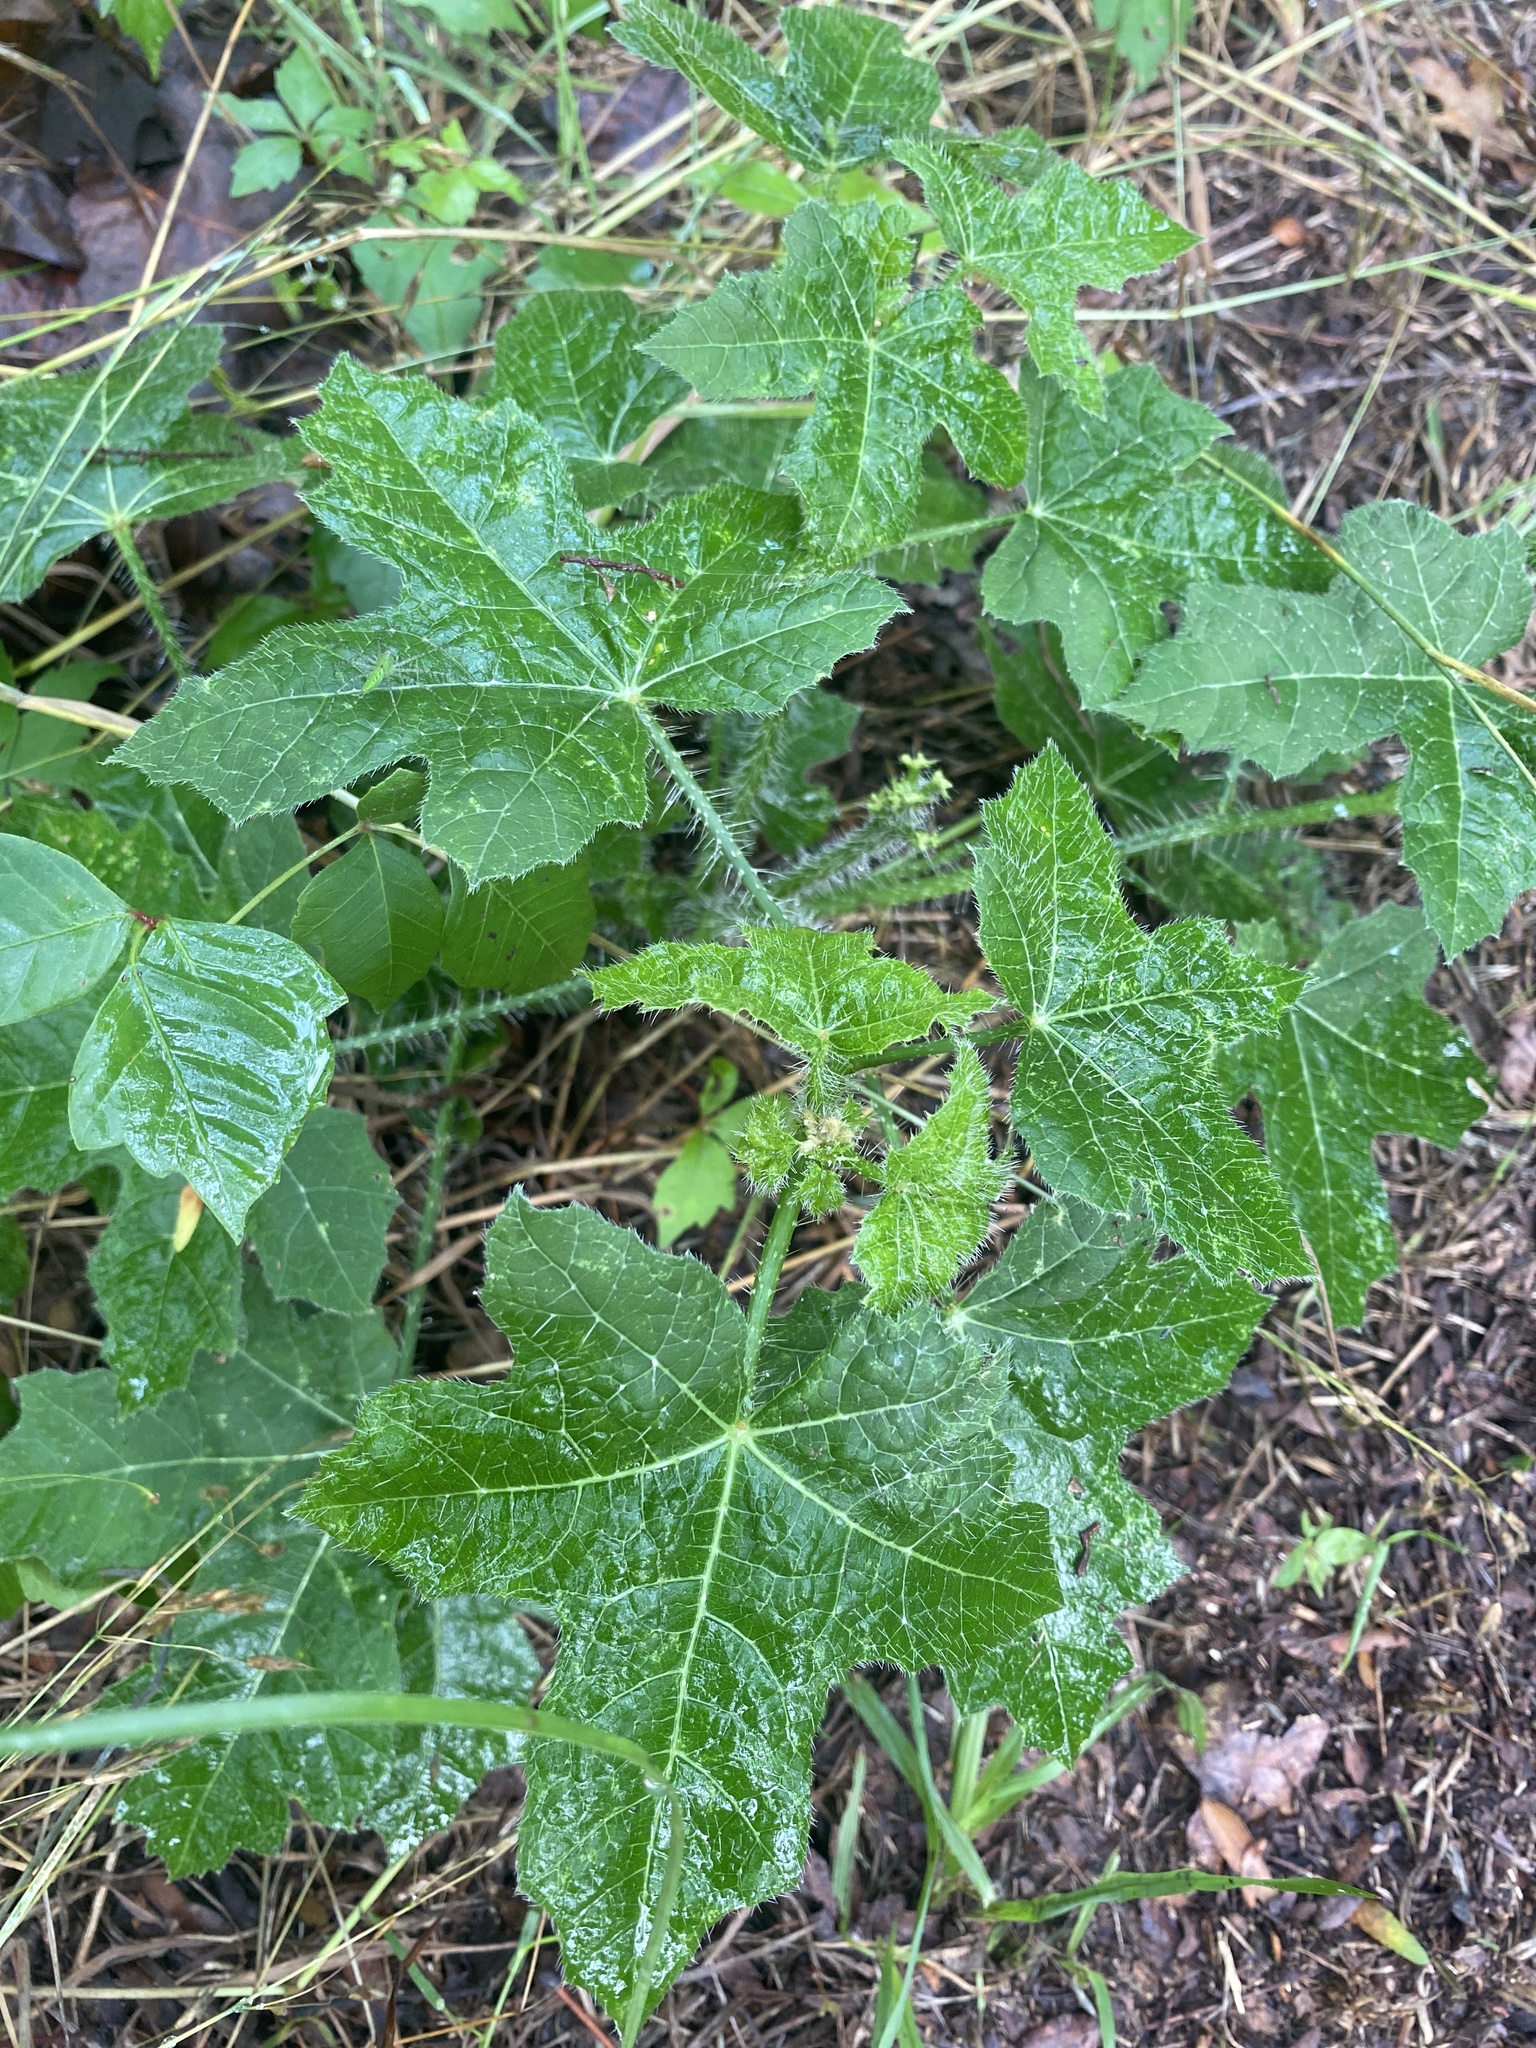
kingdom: Plantae
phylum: Tracheophyta
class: Magnoliopsida
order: Malpighiales
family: Euphorbiaceae
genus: Cnidoscolus
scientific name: Cnidoscolus texanus
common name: Texas bull-nettle
